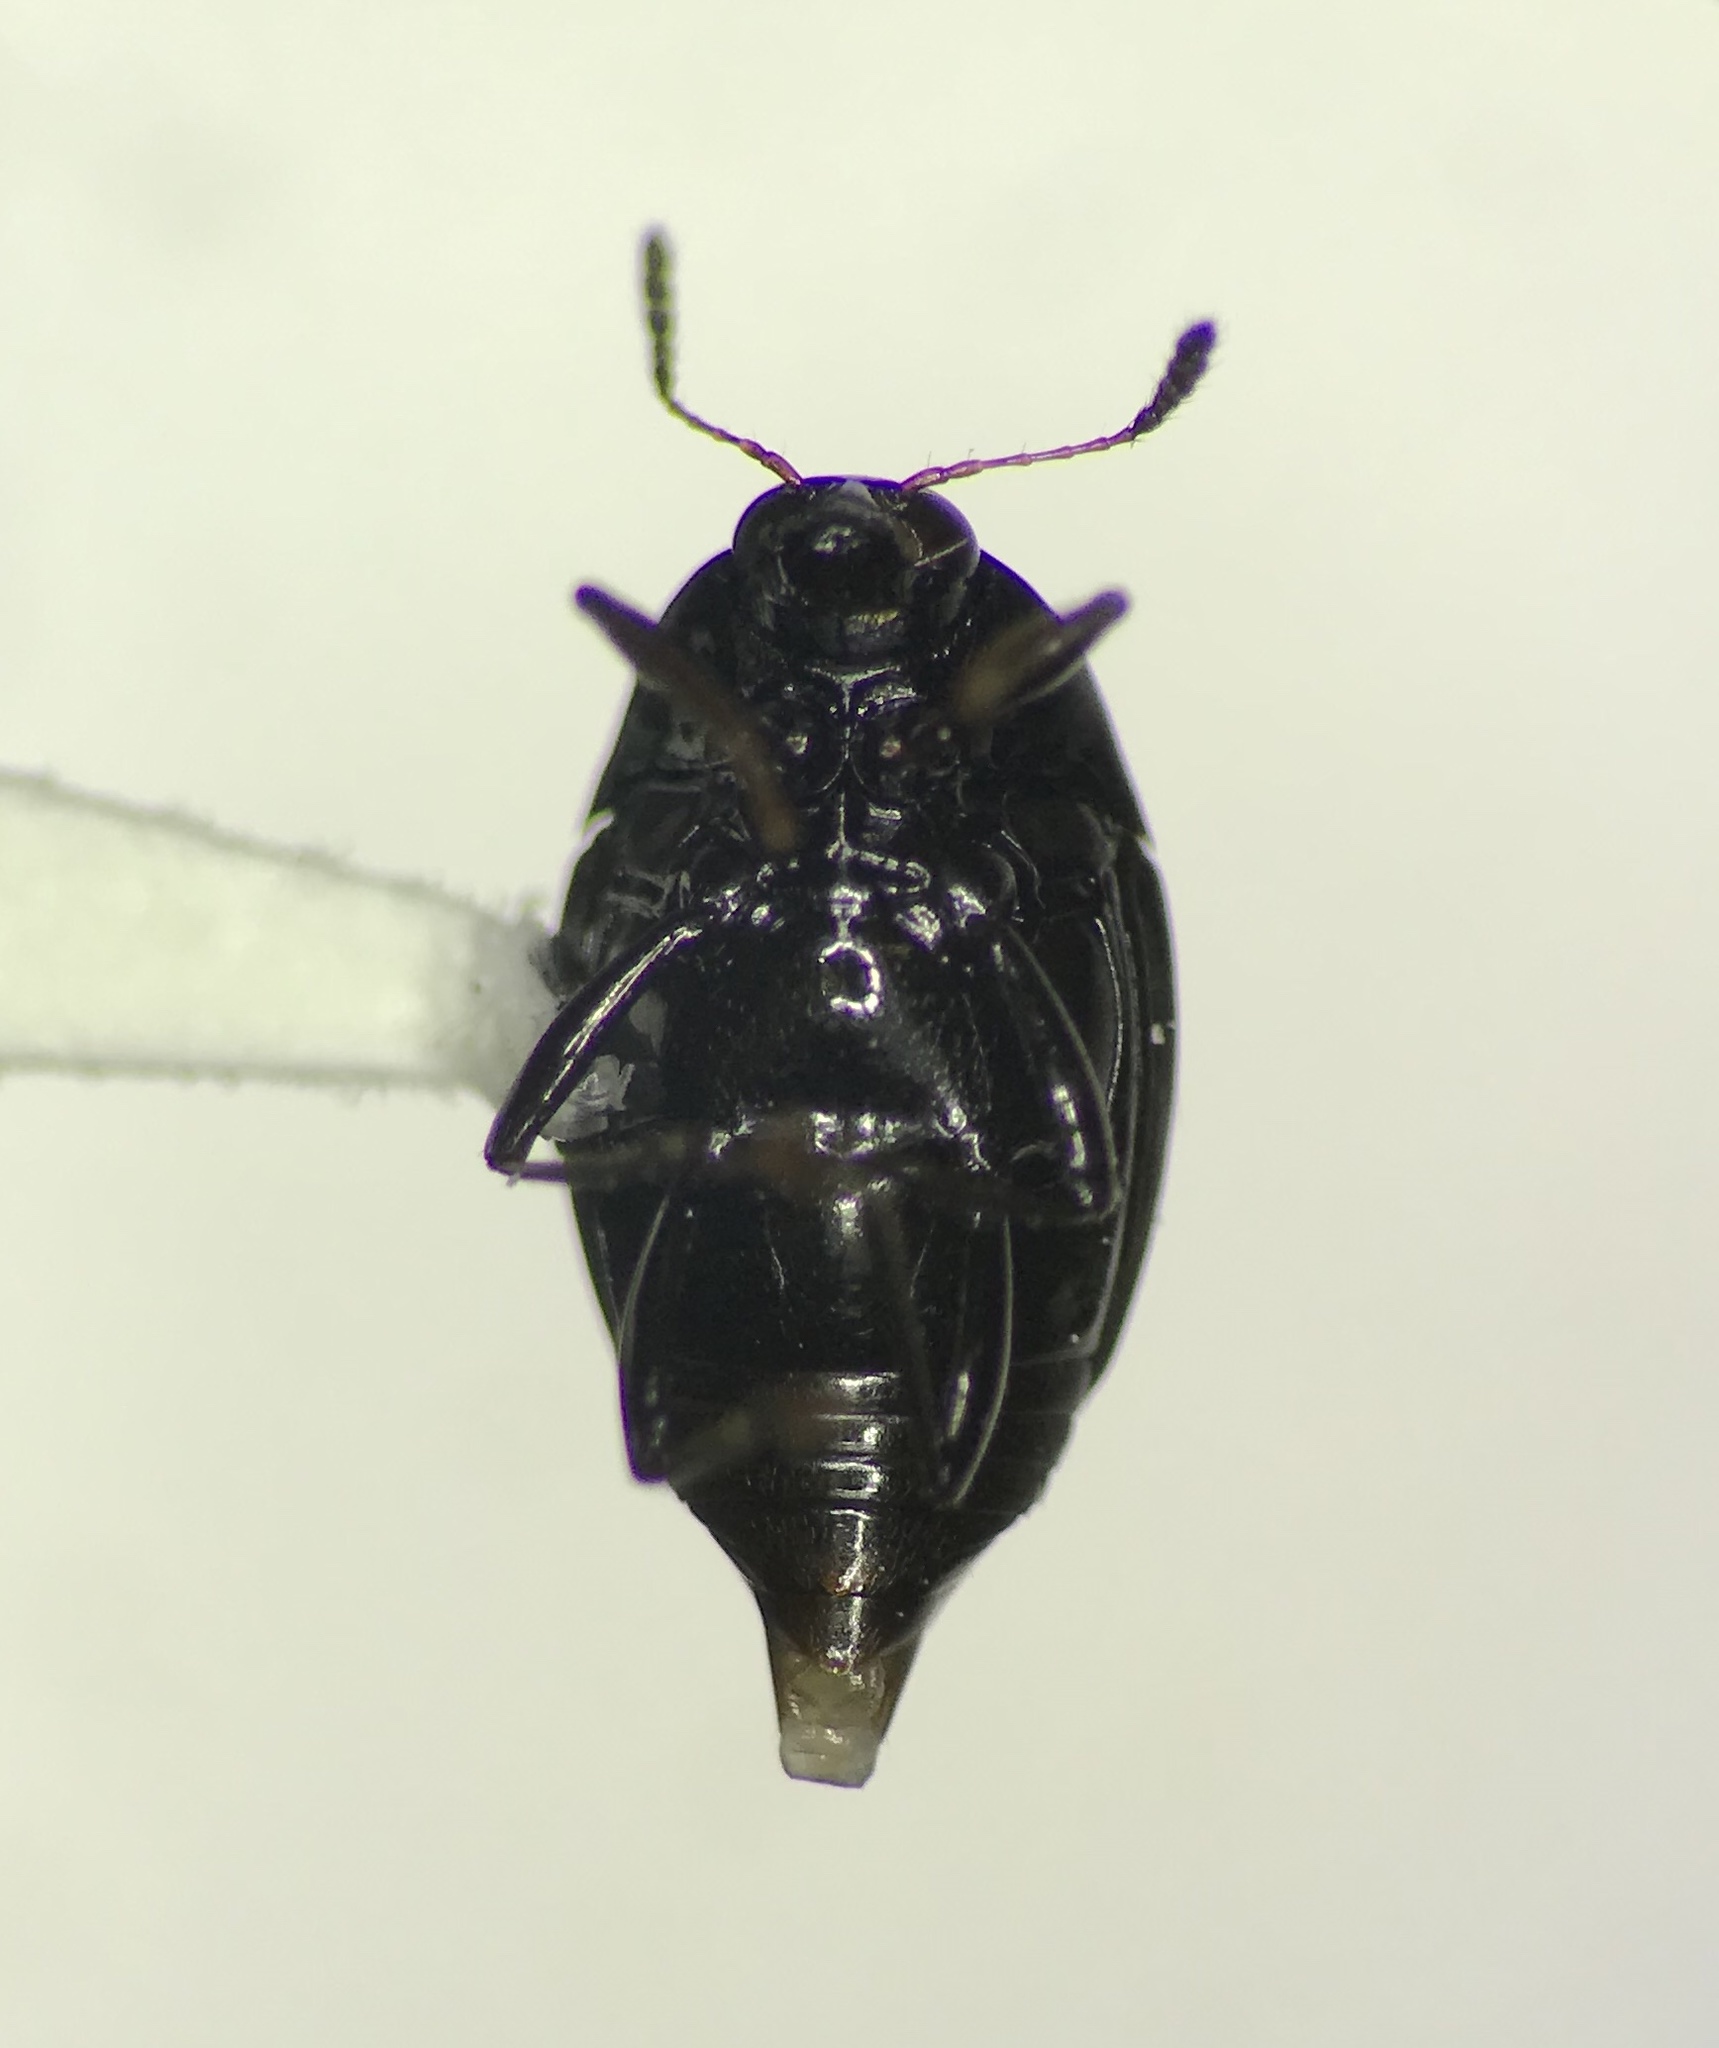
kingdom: Animalia
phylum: Arthropoda
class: Insecta
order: Coleoptera
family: Staphylinidae
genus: Scaphidium
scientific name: Scaphidium piceum
